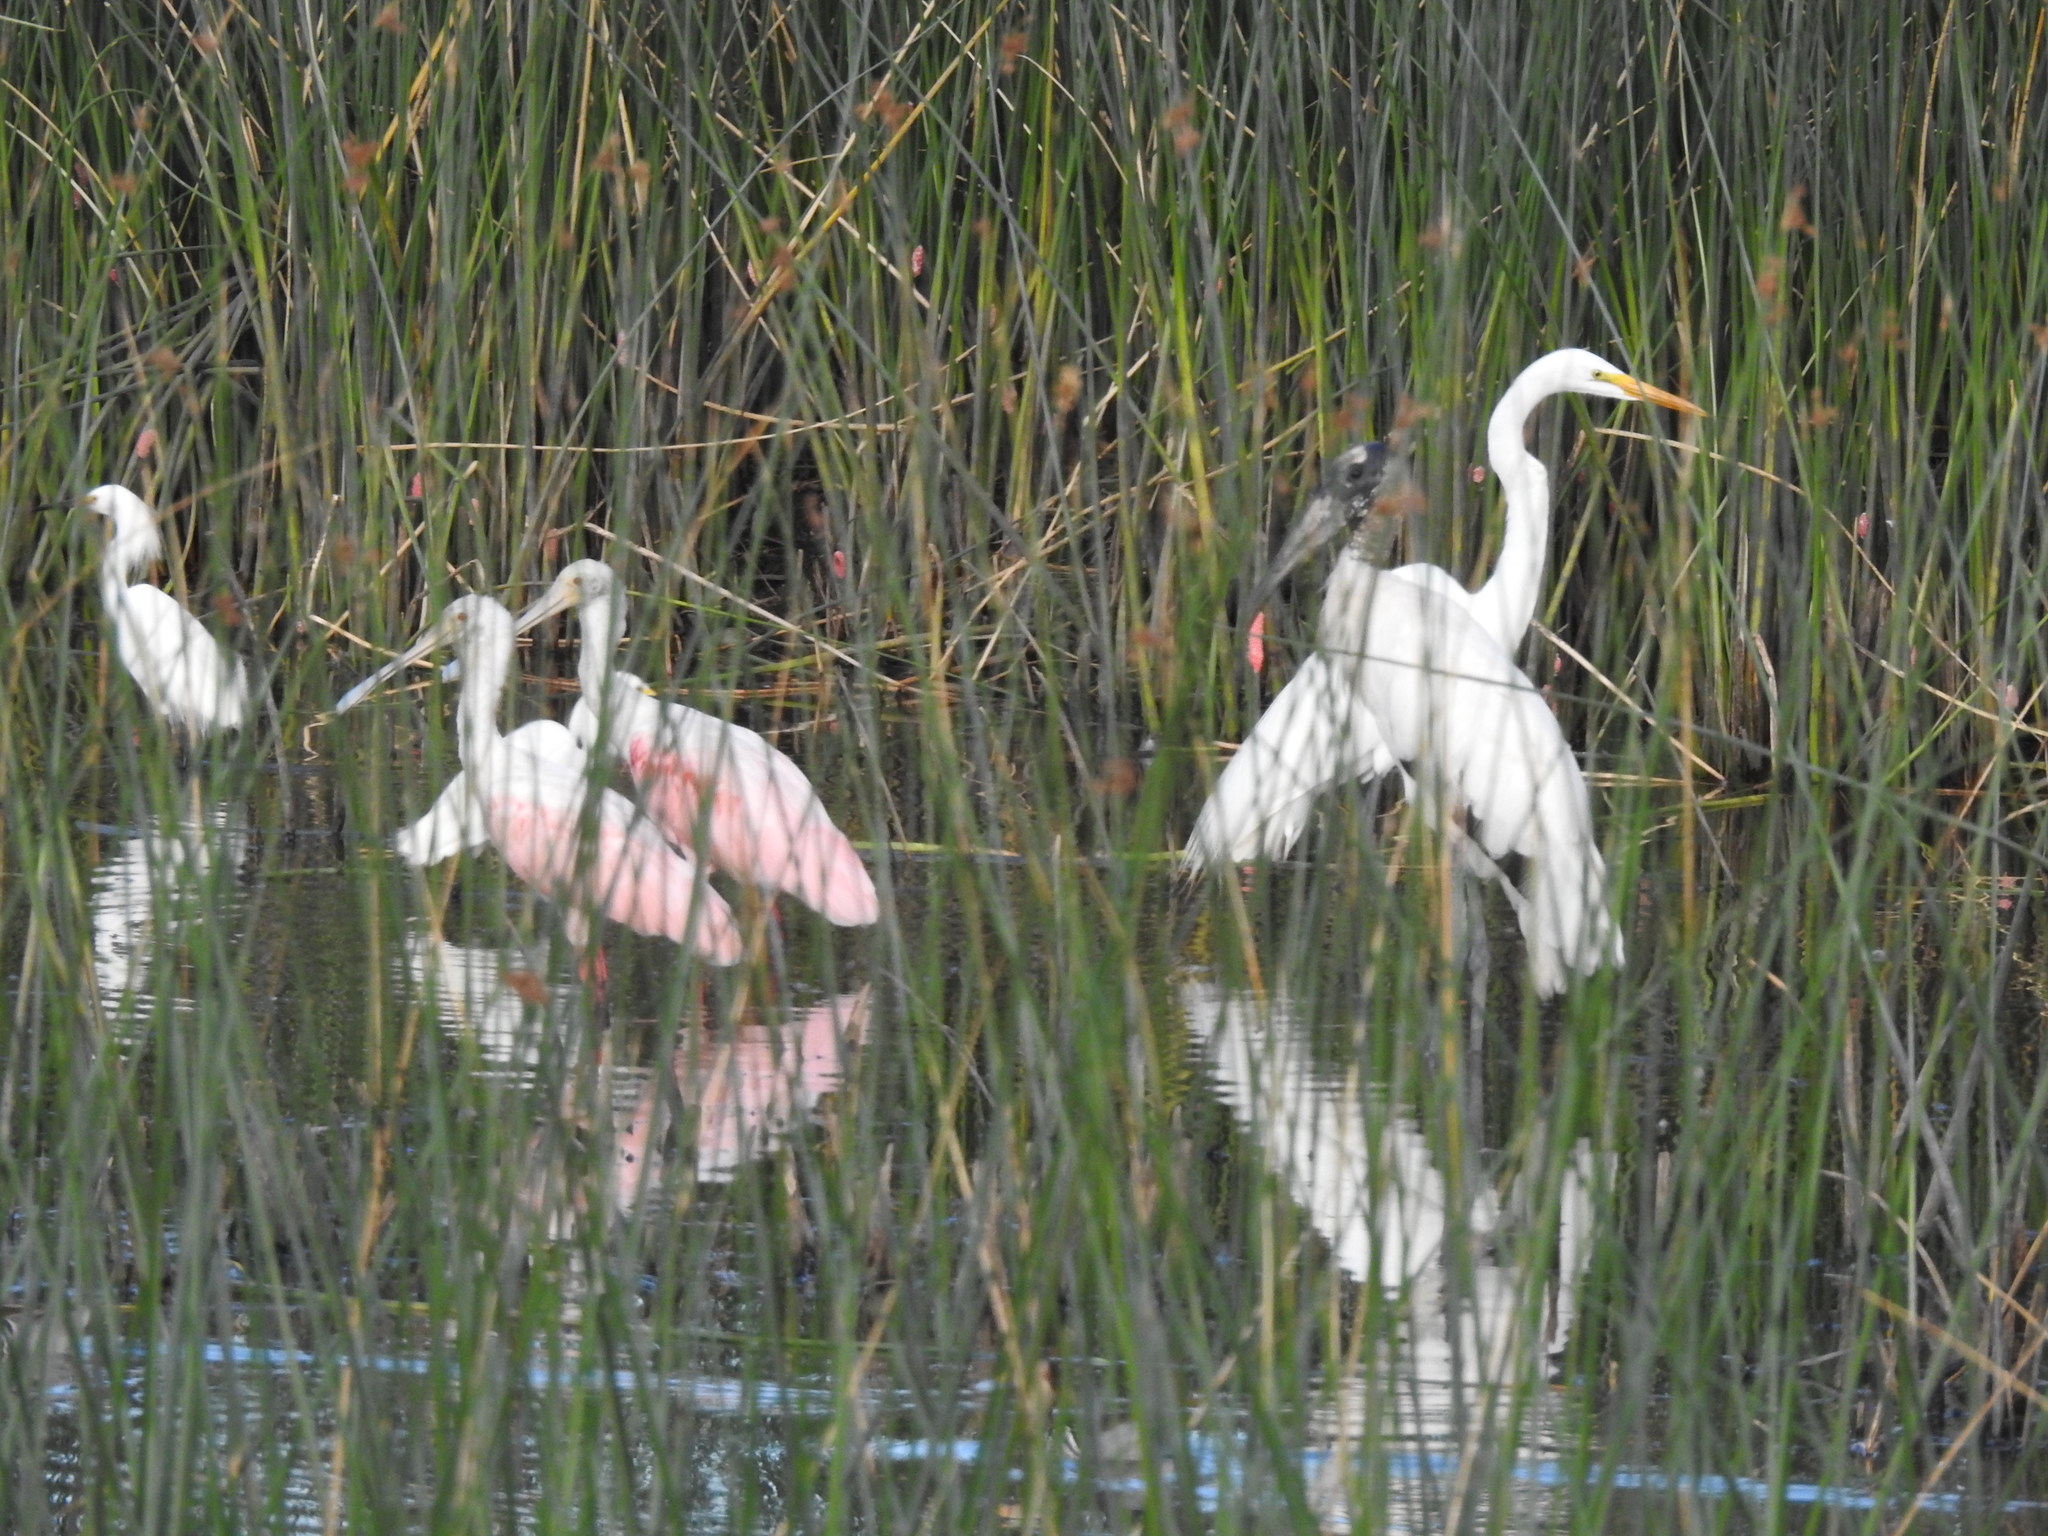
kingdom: Animalia
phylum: Chordata
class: Aves
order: Pelecaniformes
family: Ardeidae
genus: Ardea
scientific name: Ardea alba
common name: Great egret
